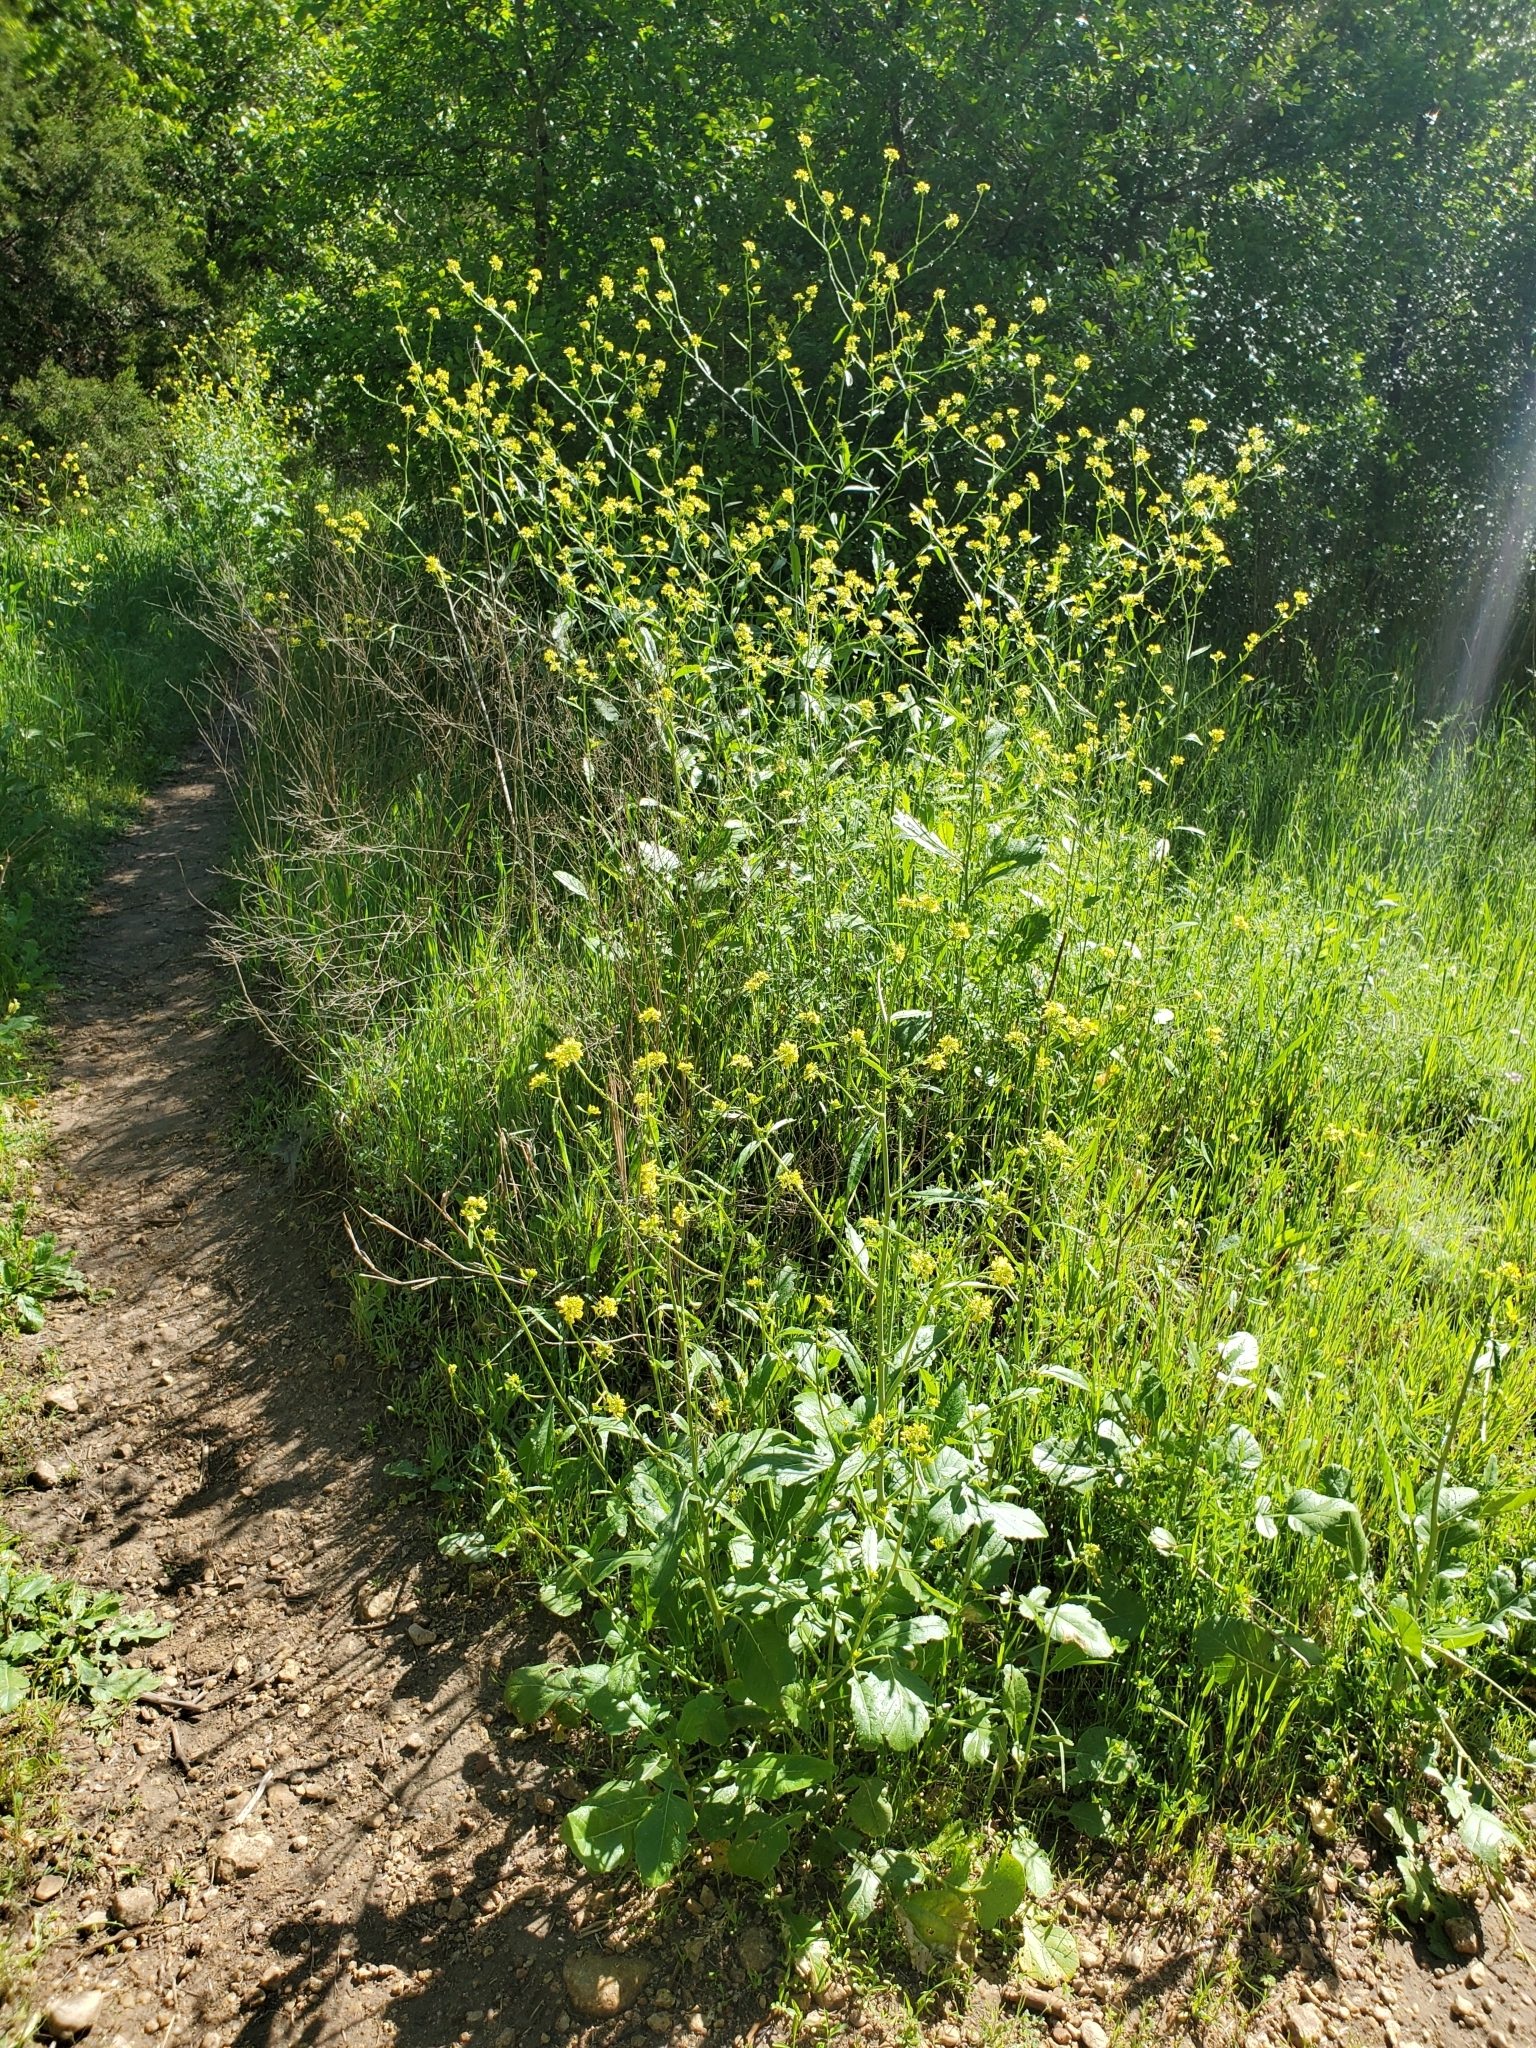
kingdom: Plantae
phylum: Tracheophyta
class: Magnoliopsida
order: Brassicales
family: Brassicaceae
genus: Rapistrum
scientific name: Rapistrum rugosum
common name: Annual bastardcabbage
